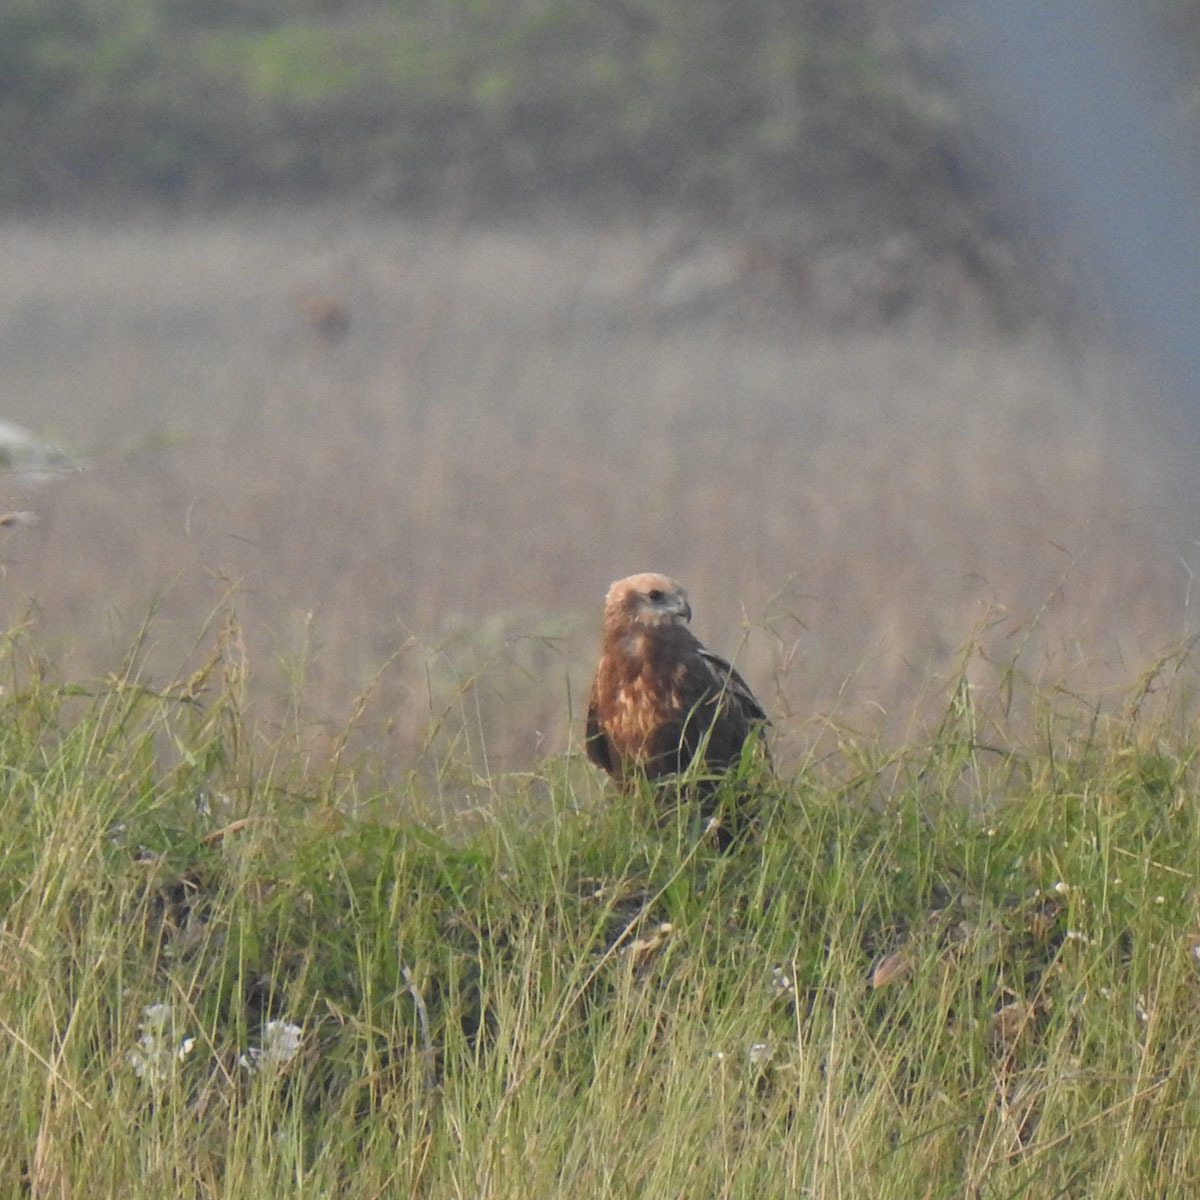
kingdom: Animalia
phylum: Chordata
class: Aves
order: Accipitriformes
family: Accipitridae
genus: Circus
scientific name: Circus aeruginosus
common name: Western marsh harrier
